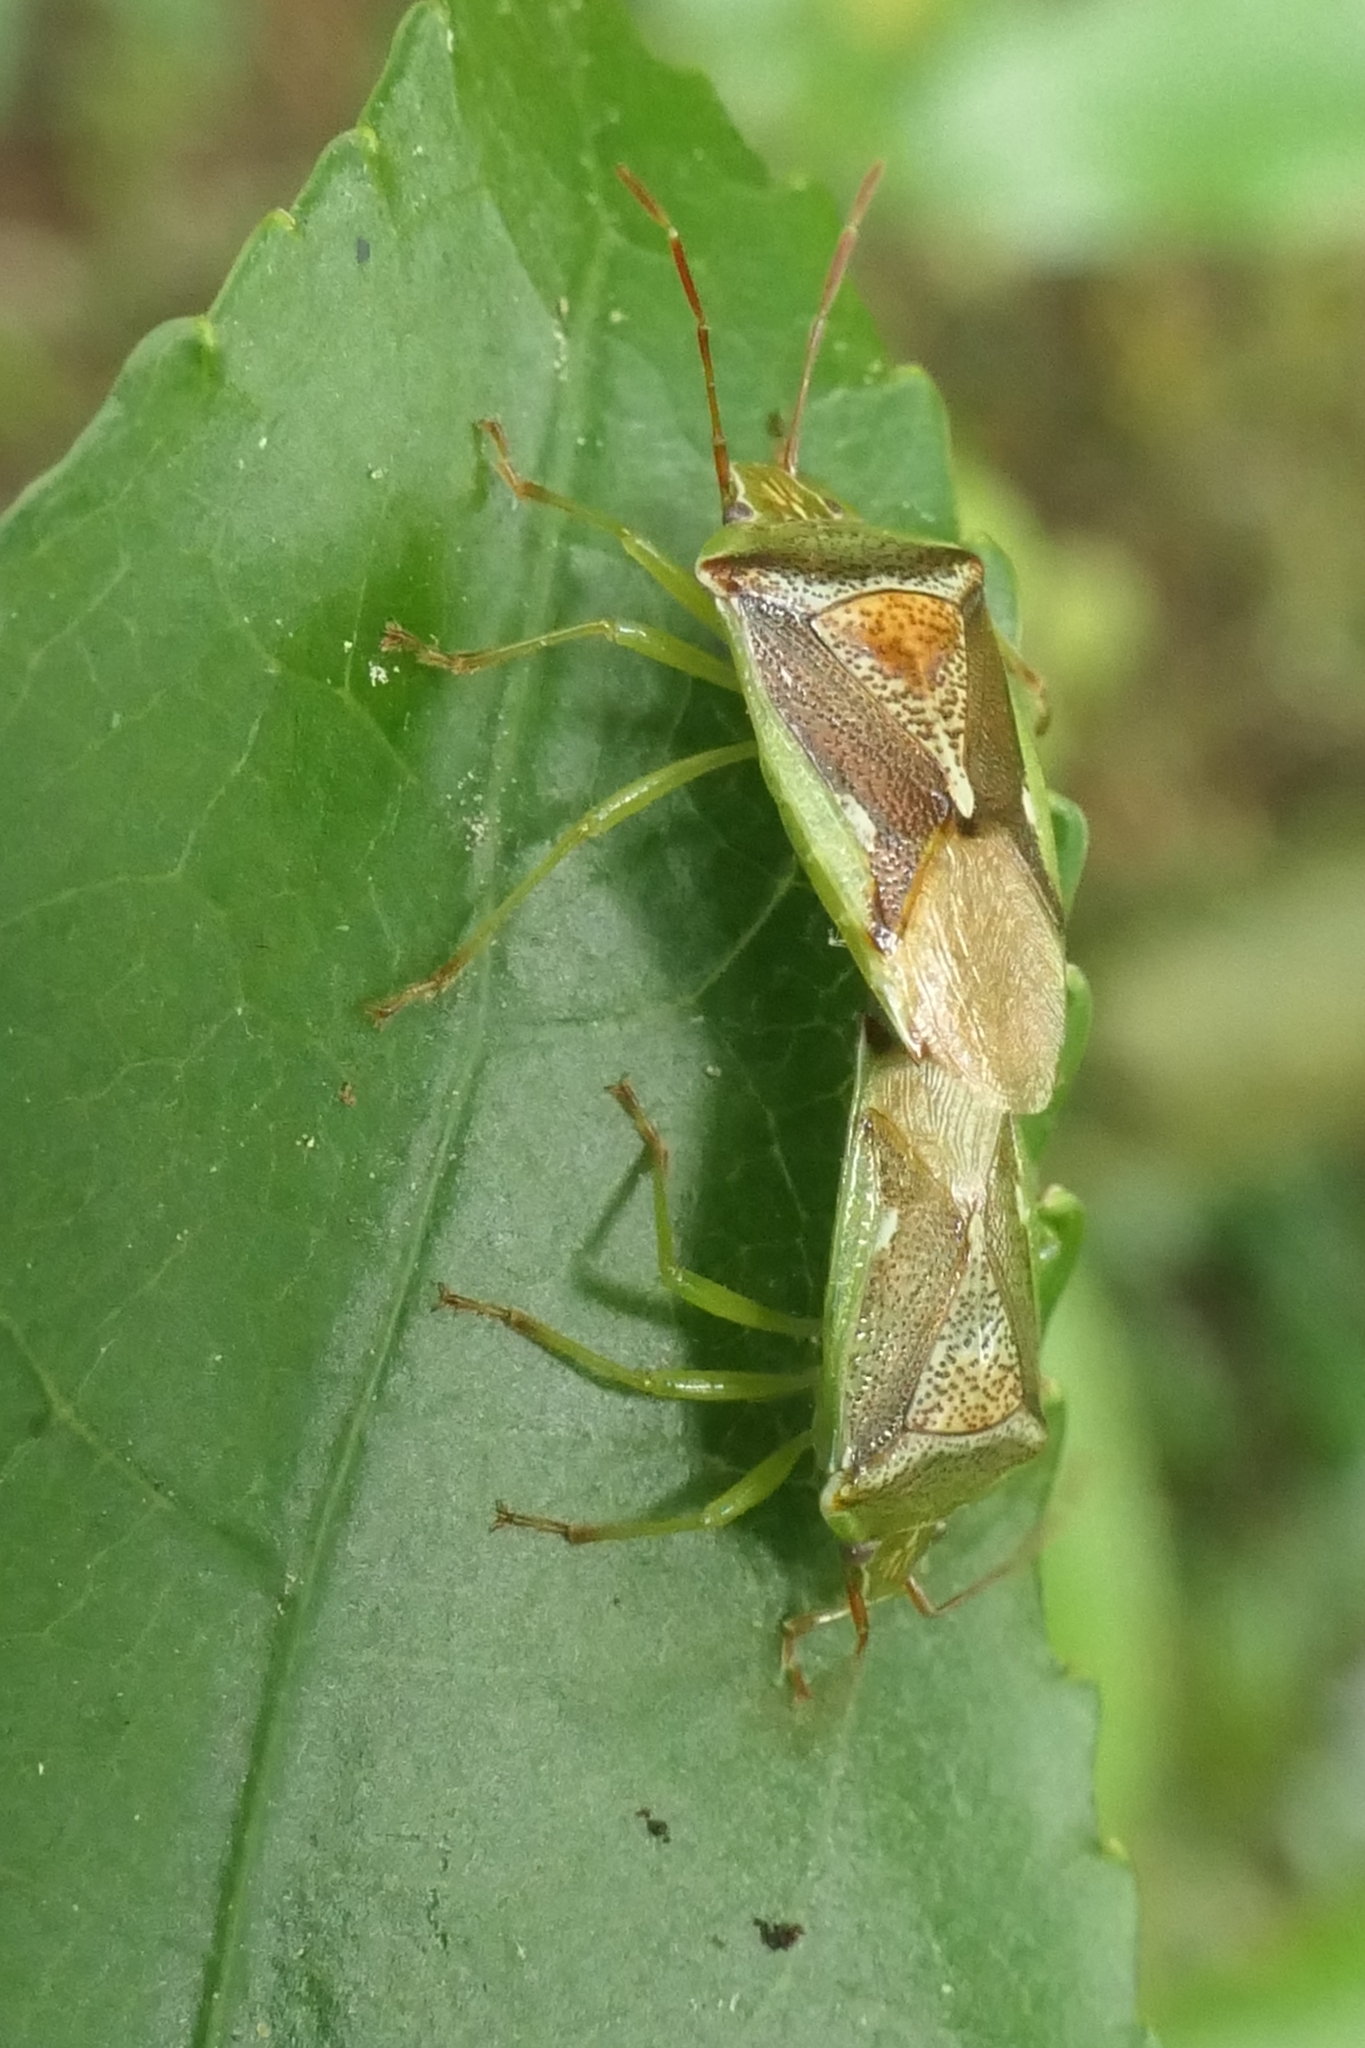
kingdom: Animalia
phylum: Arthropoda
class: Insecta
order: Hemiptera
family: Acanthosomatidae
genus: Oncacontias
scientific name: Oncacontias vittatus
